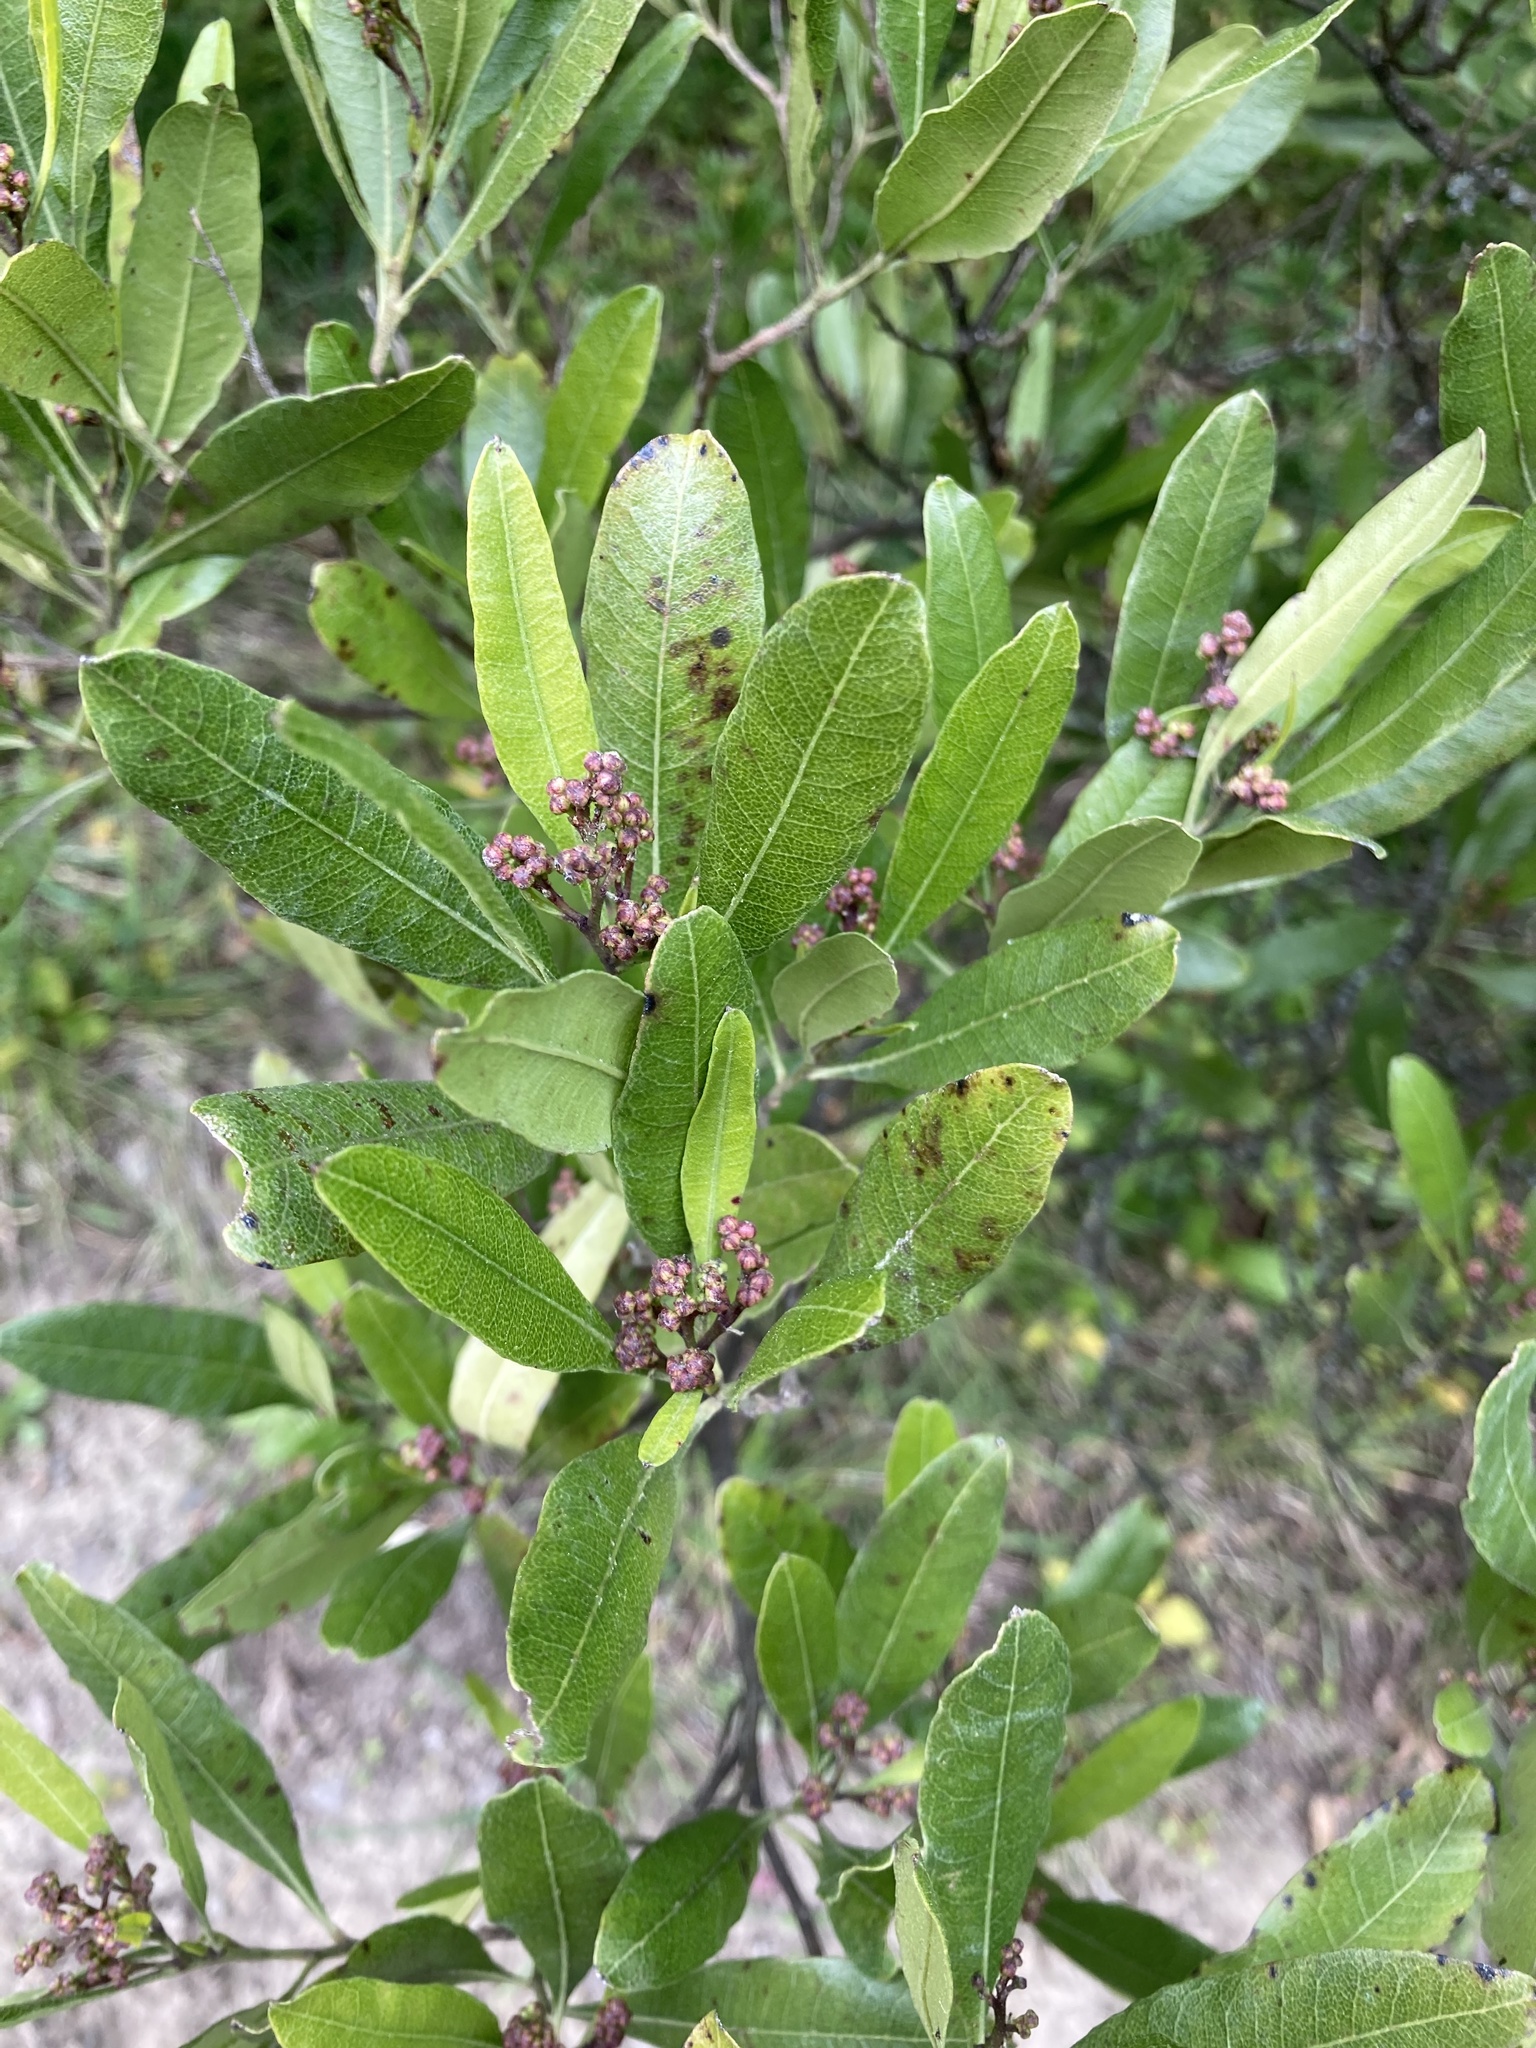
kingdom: Plantae
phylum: Tracheophyta
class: Magnoliopsida
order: Sapindales
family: Sapindaceae
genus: Dodonaea
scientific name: Dodonaea viscosa
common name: Hopbush
